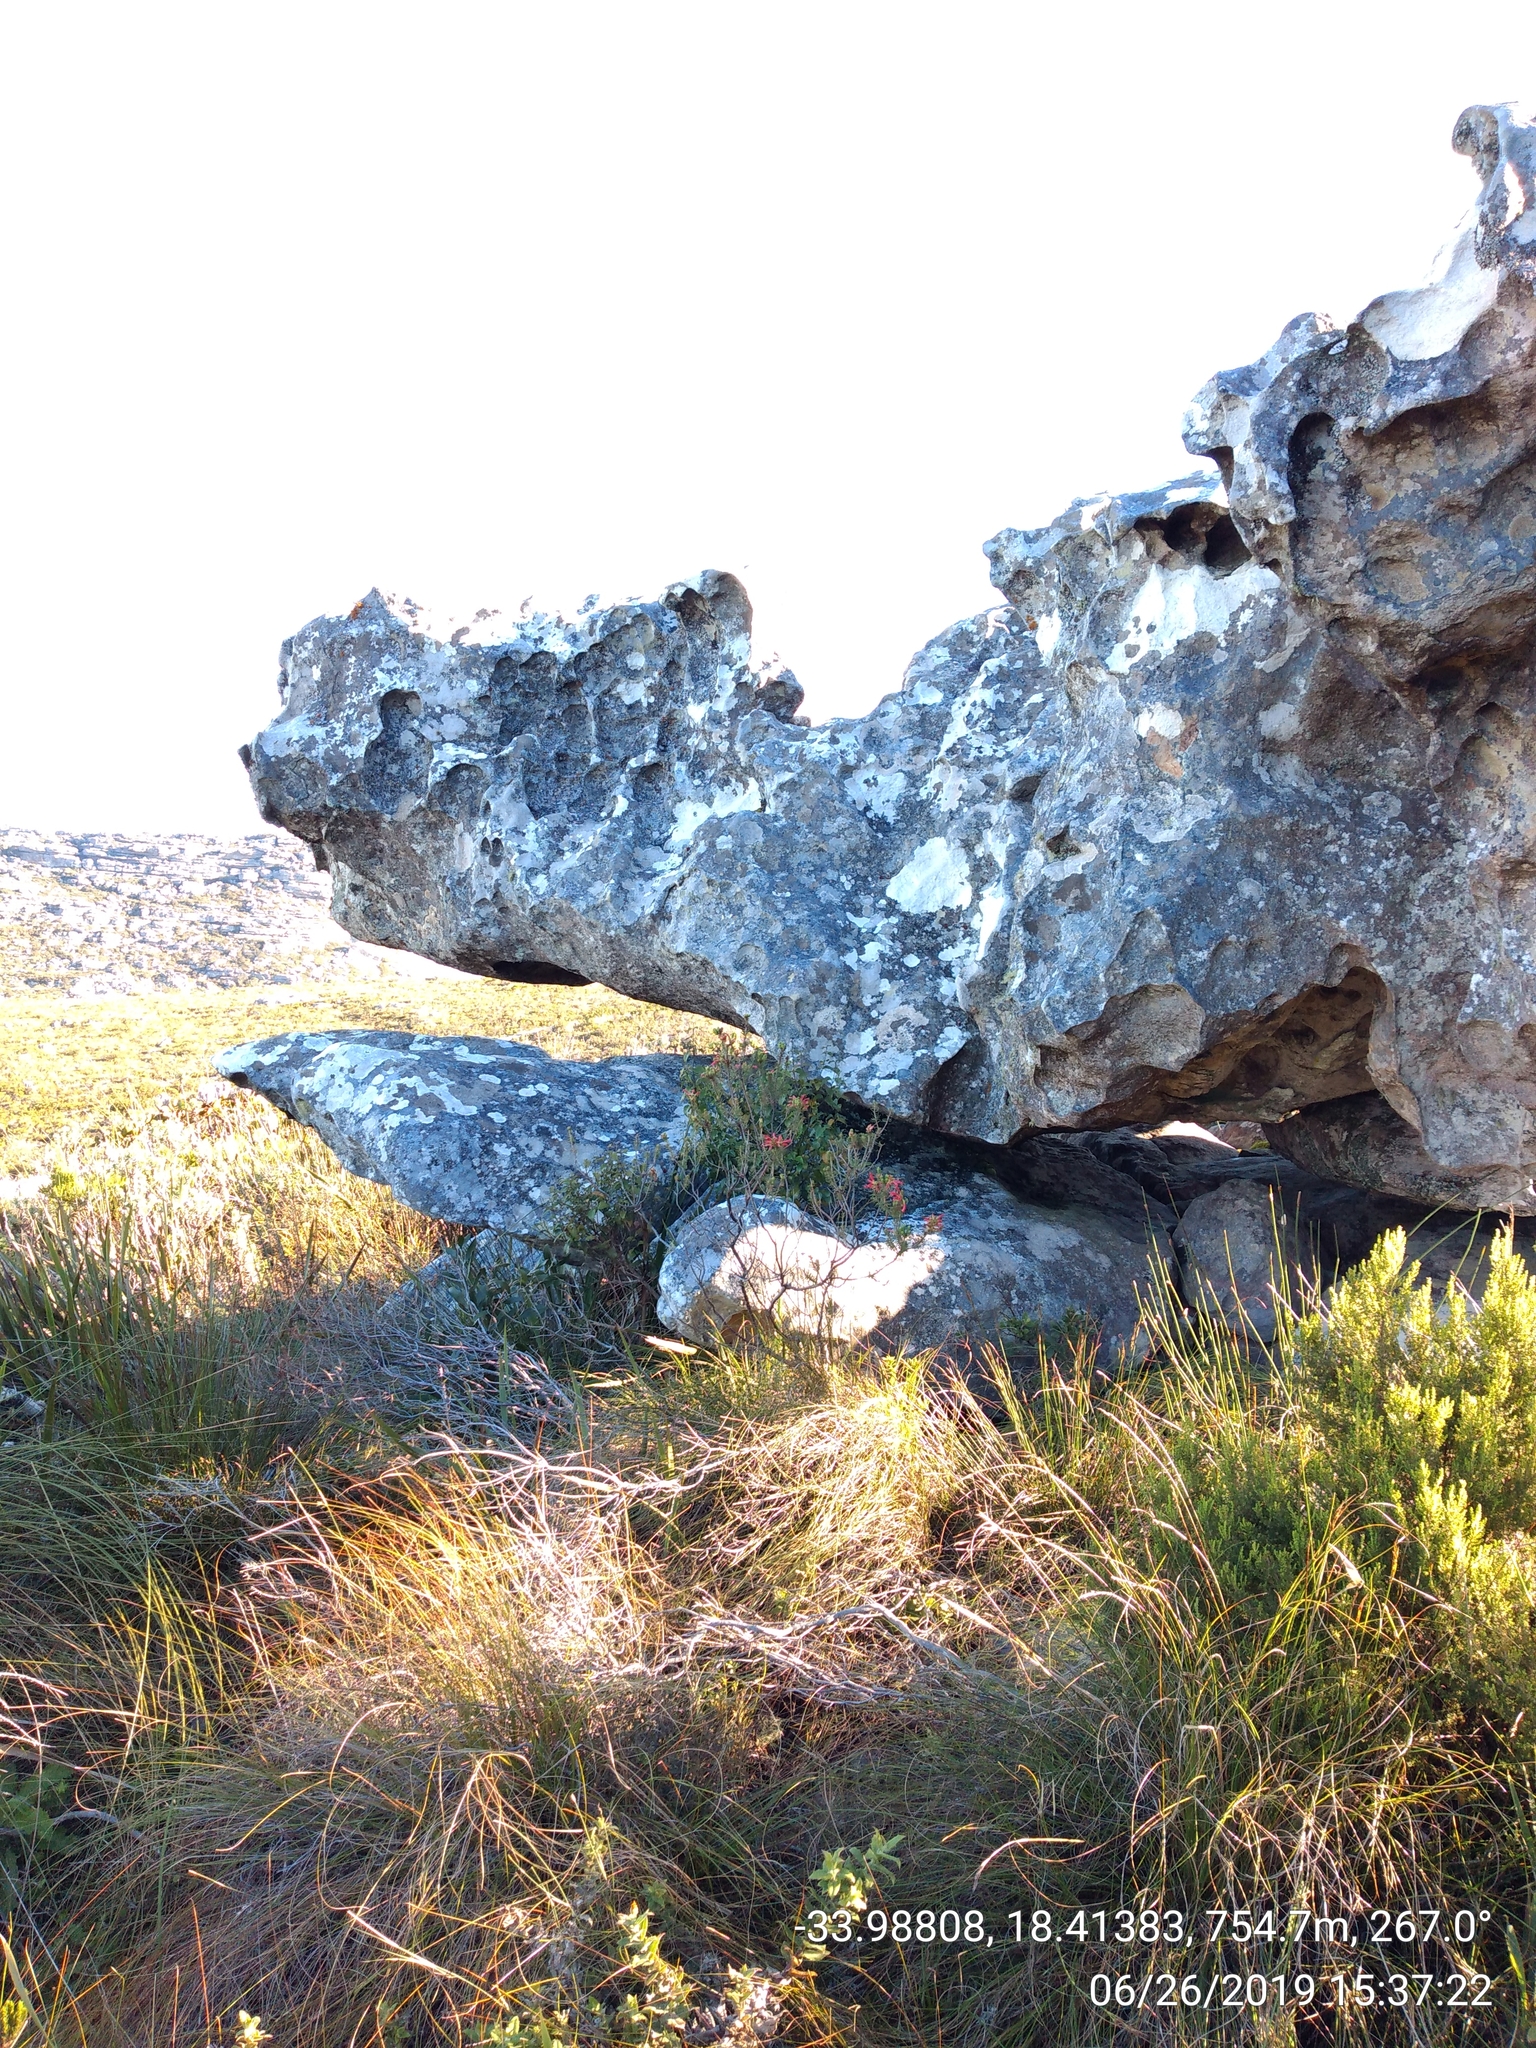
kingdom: Plantae
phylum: Tracheophyta
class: Magnoliopsida
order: Ericales
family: Ericaceae
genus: Erica
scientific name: Erica abietina
